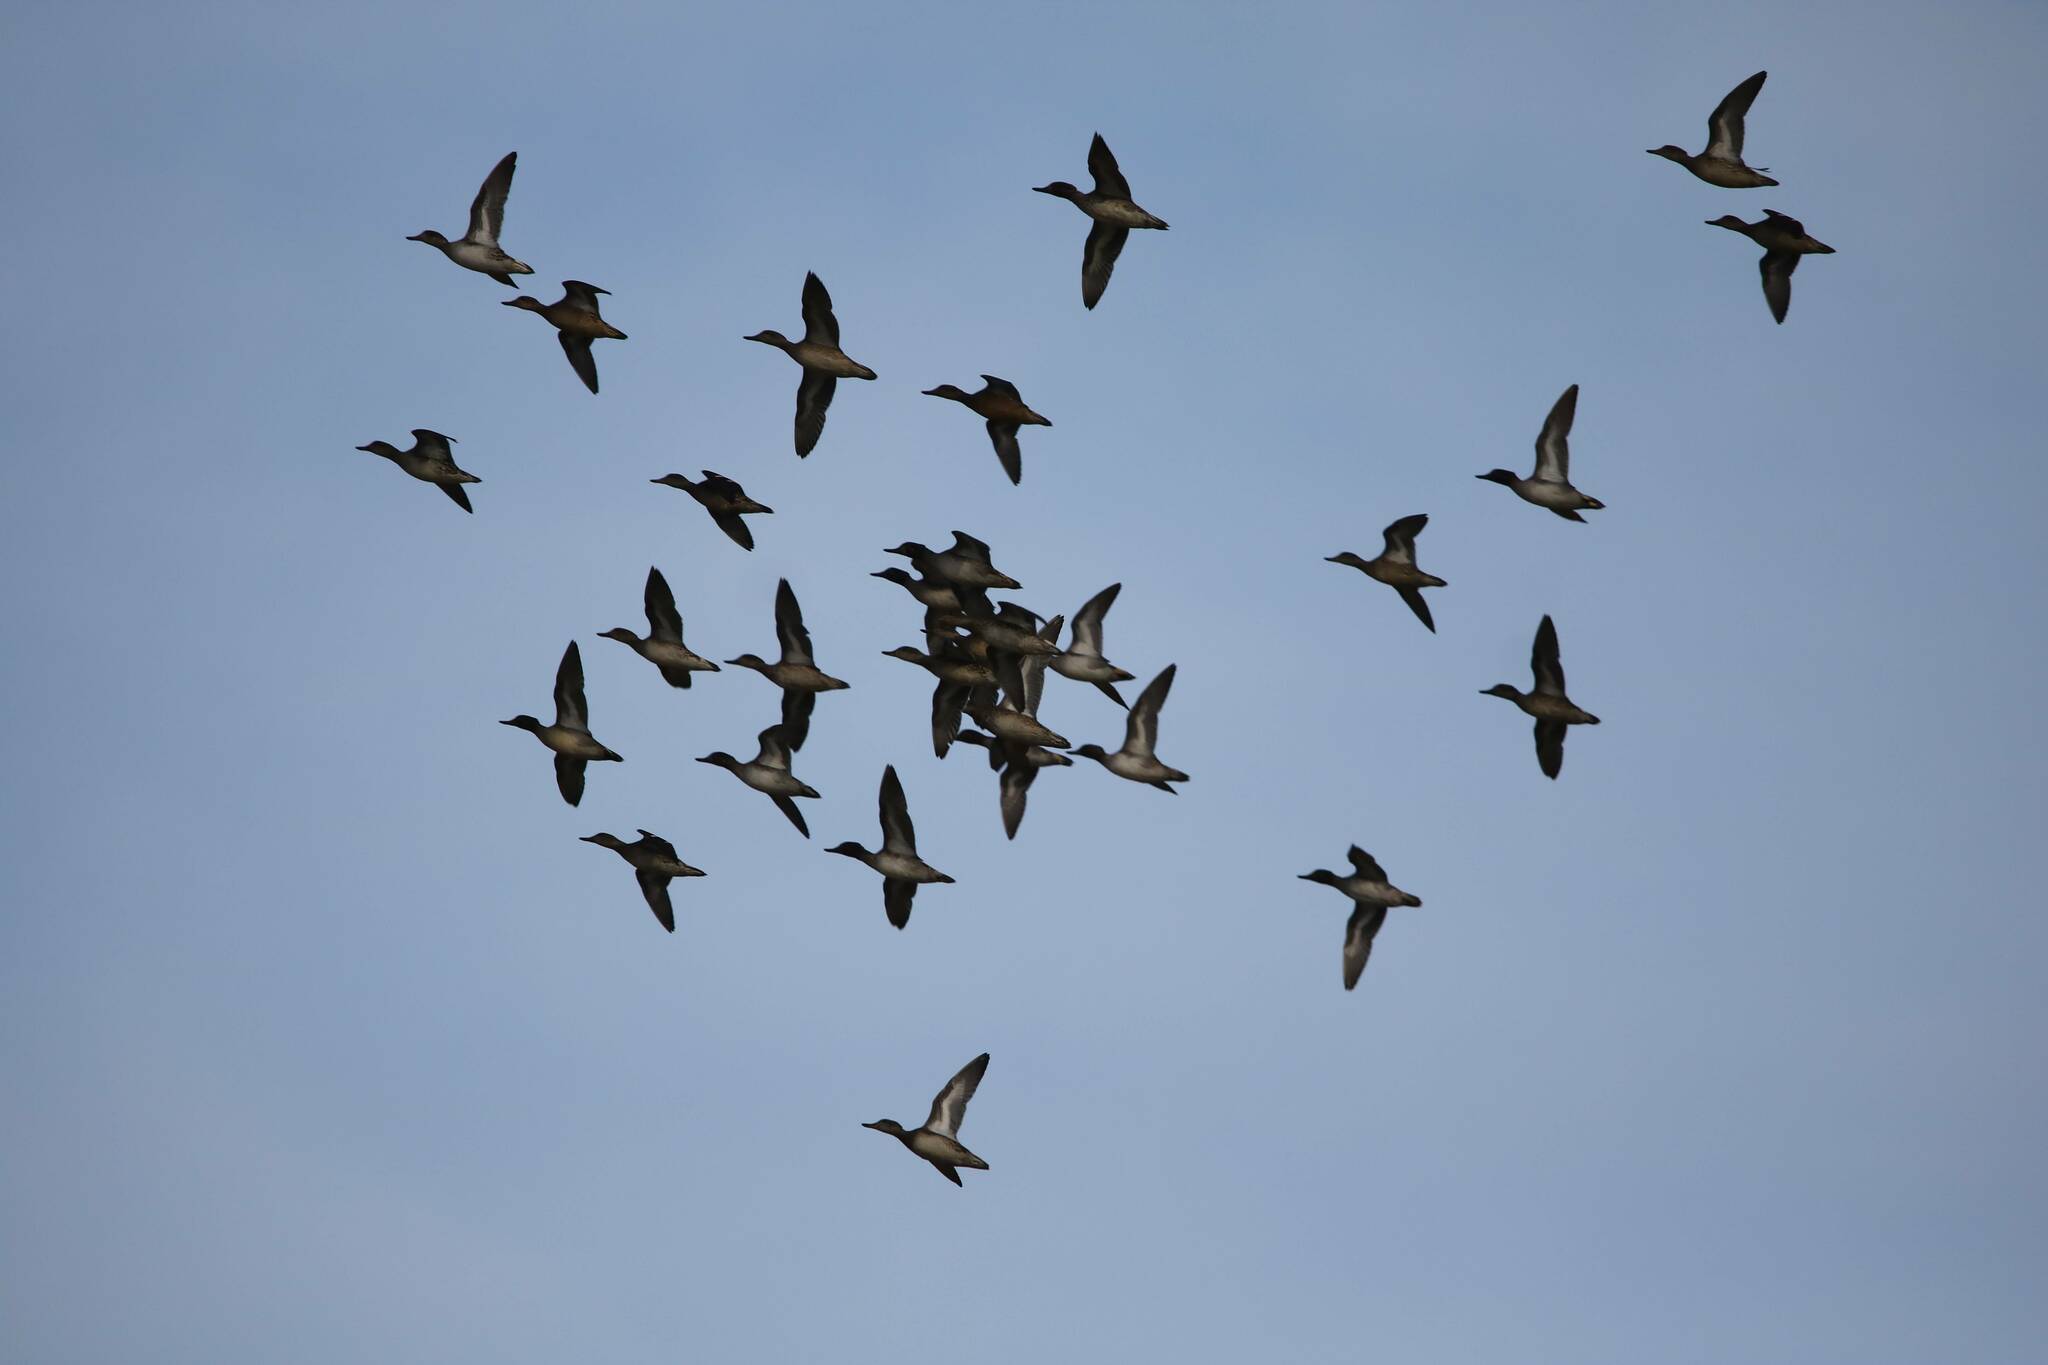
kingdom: Animalia
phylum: Chordata
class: Aves
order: Anseriformes
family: Anatidae
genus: Anas
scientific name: Anas crecca
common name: Eurasian teal
